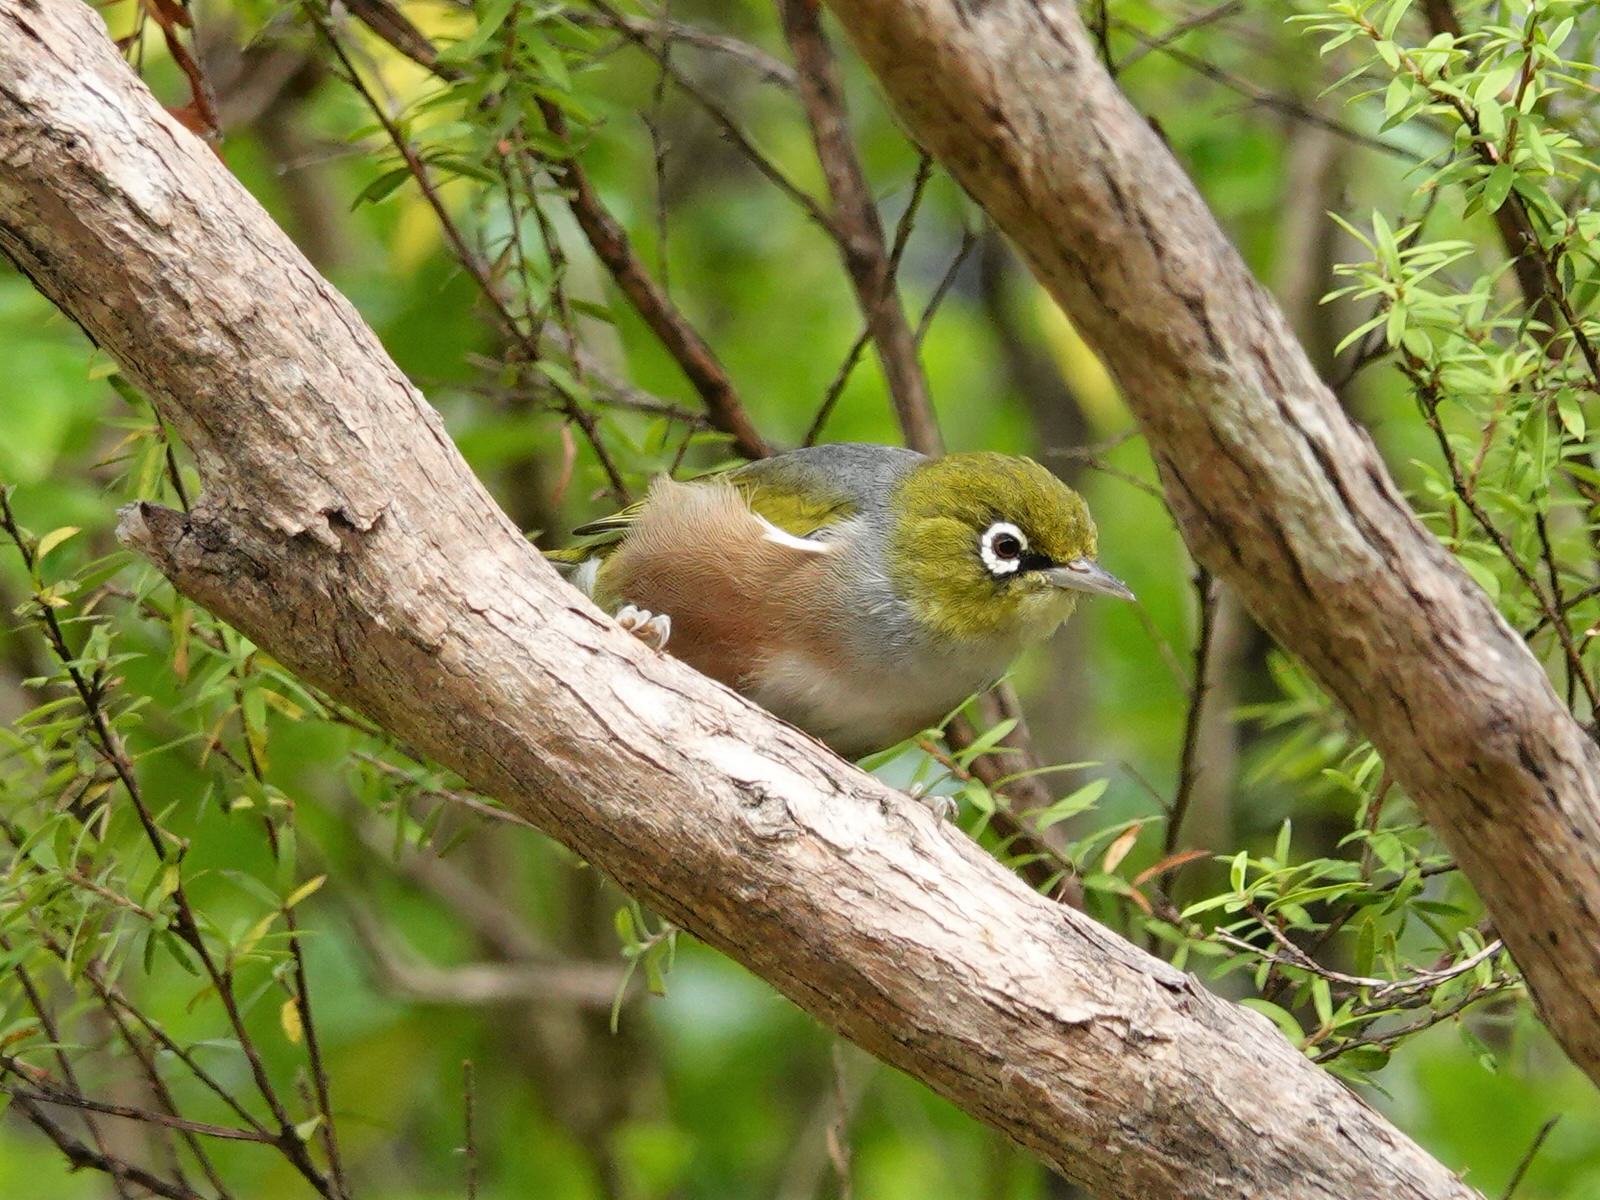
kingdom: Animalia
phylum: Chordata
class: Aves
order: Passeriformes
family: Zosteropidae
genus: Zosterops
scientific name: Zosterops lateralis
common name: Silvereye
